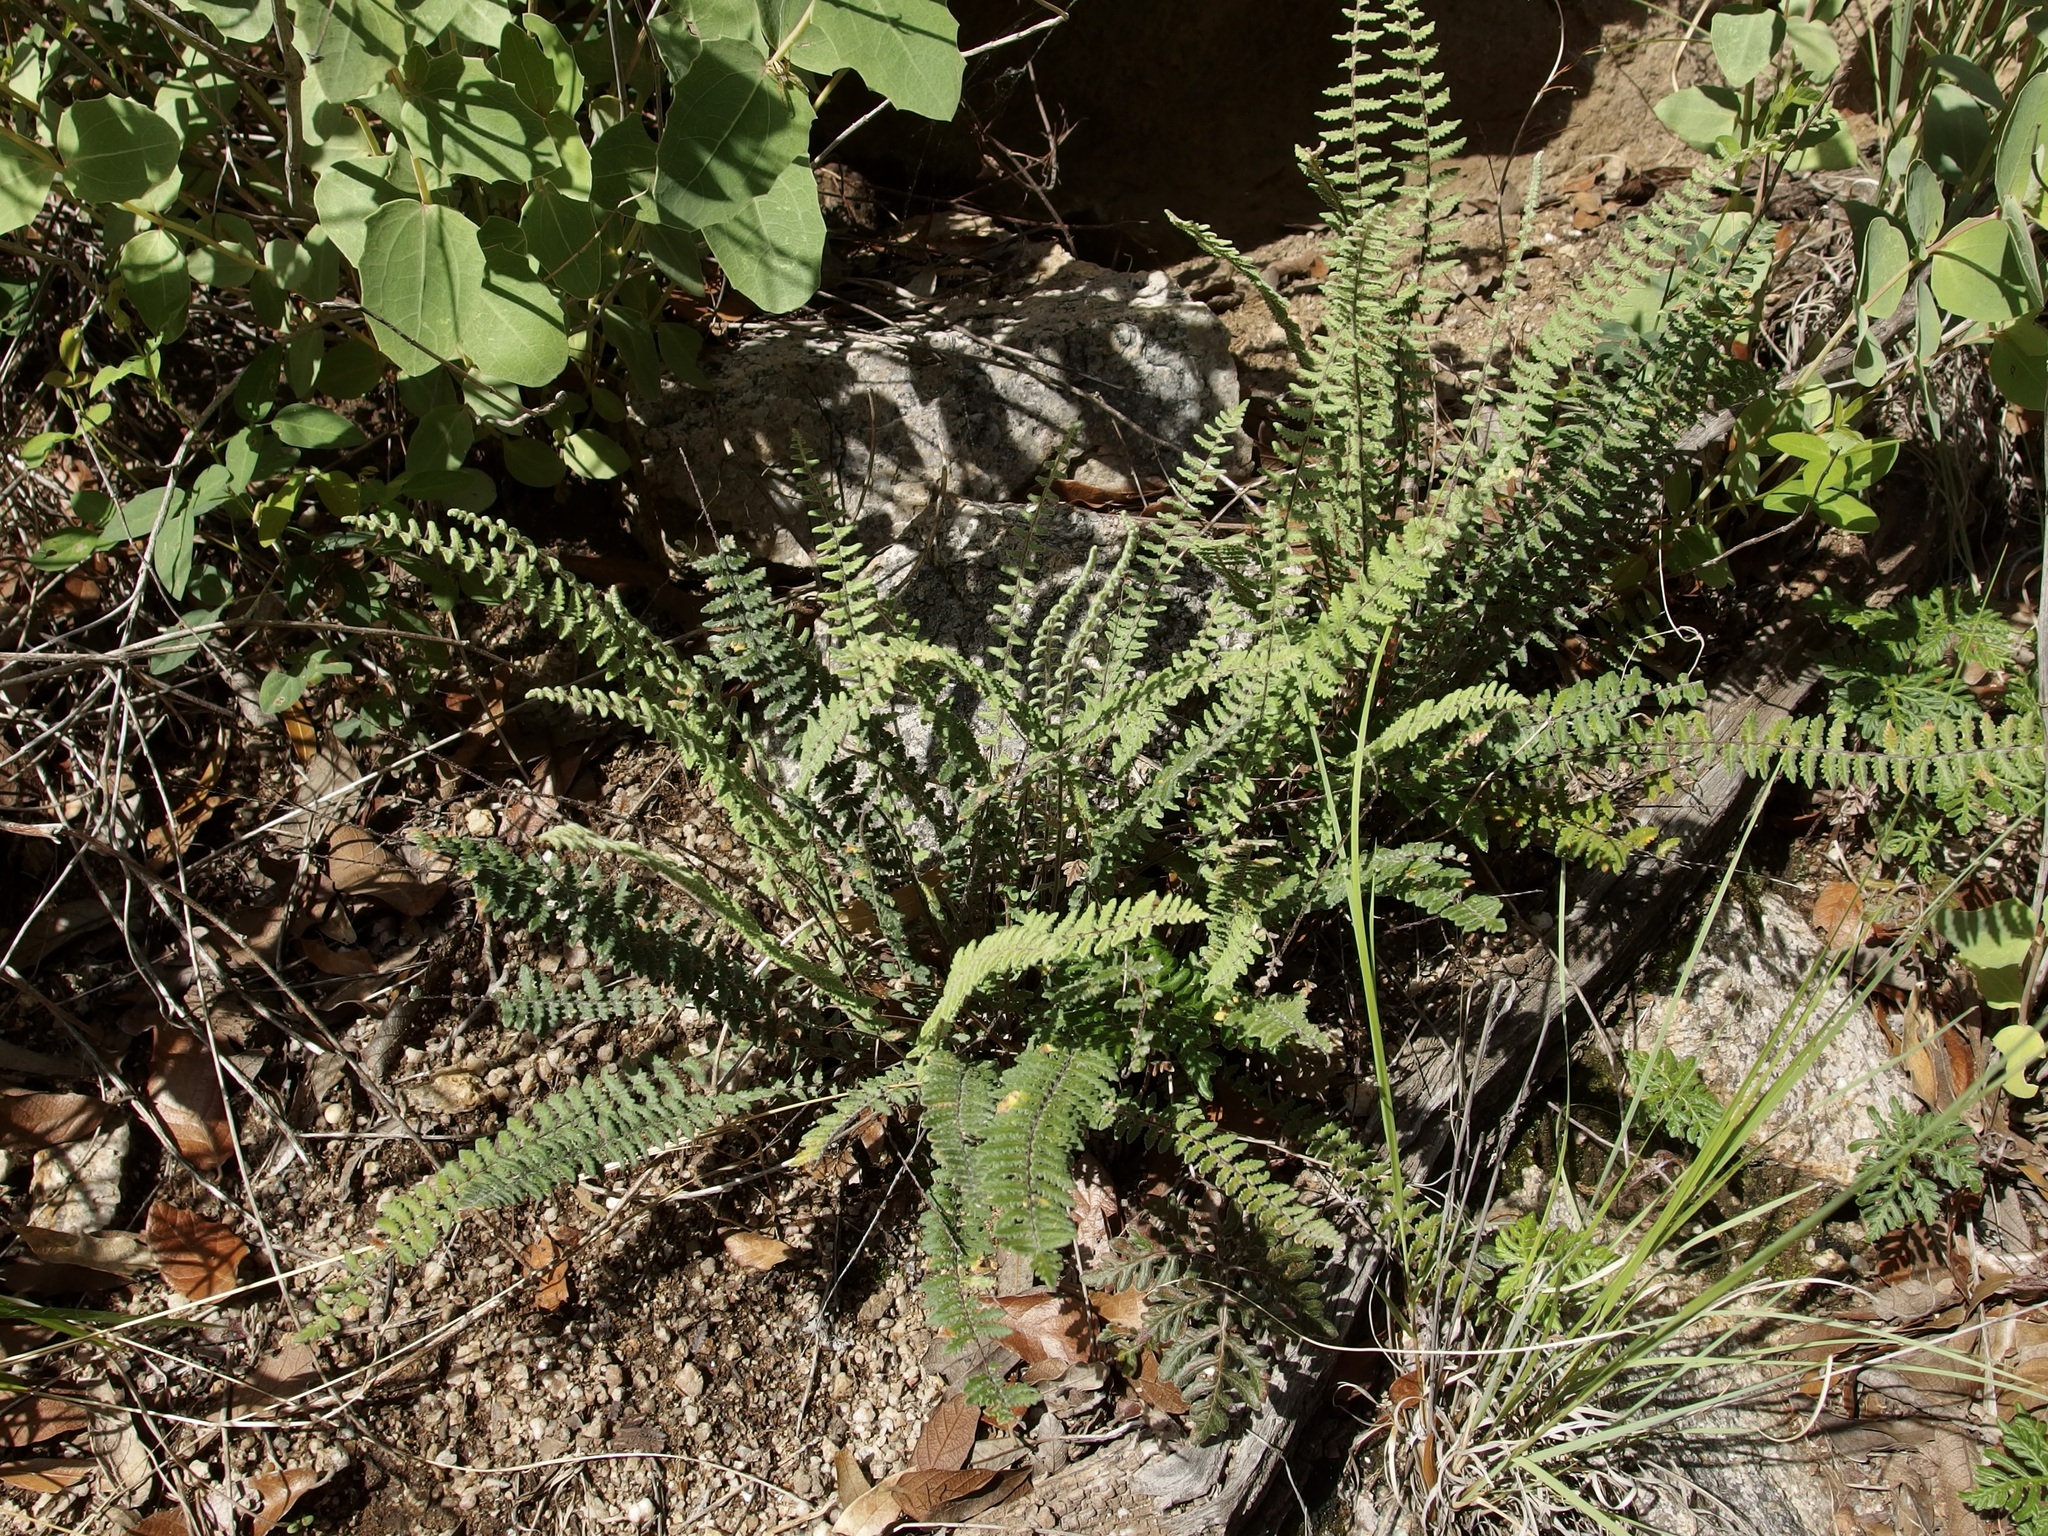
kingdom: Plantae
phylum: Tracheophyta
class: Polypodiopsida
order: Polypodiales
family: Pteridaceae
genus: Myriopteris
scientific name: Myriopteris aurea
